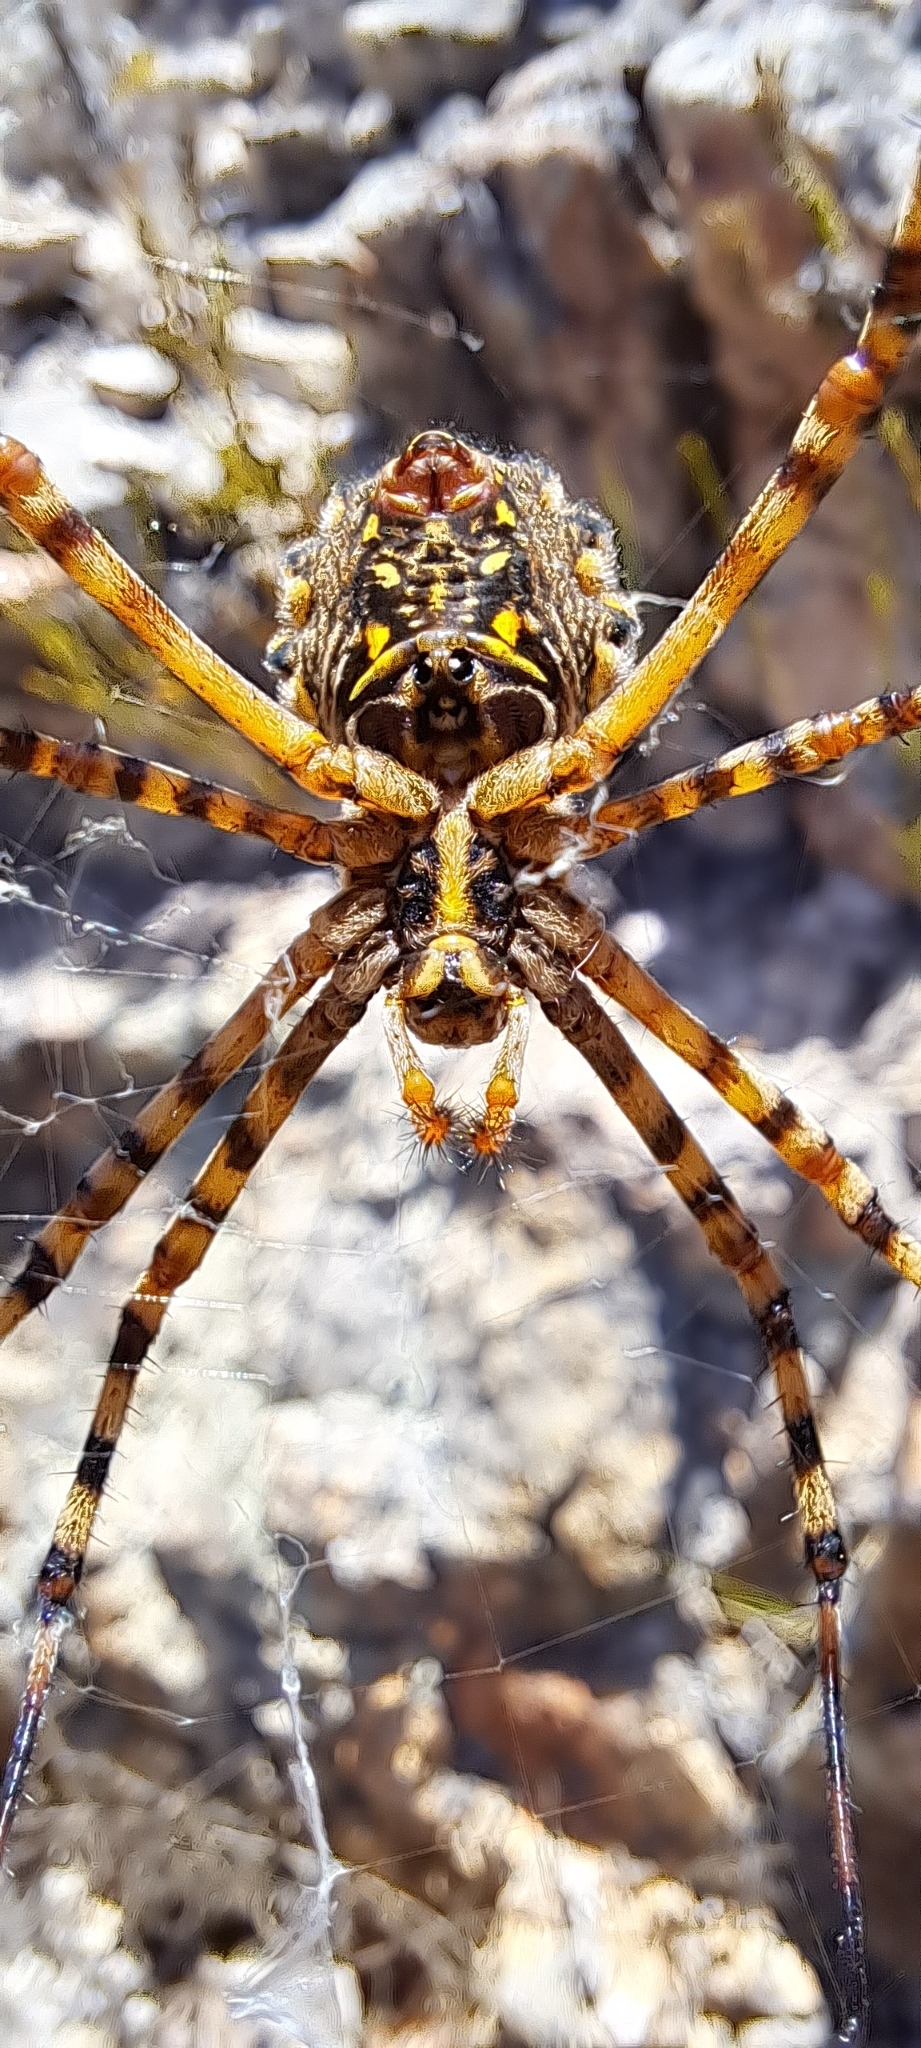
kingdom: Animalia
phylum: Arthropoda
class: Arachnida
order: Araneae
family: Araneidae
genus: Argiope
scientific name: Argiope australis
